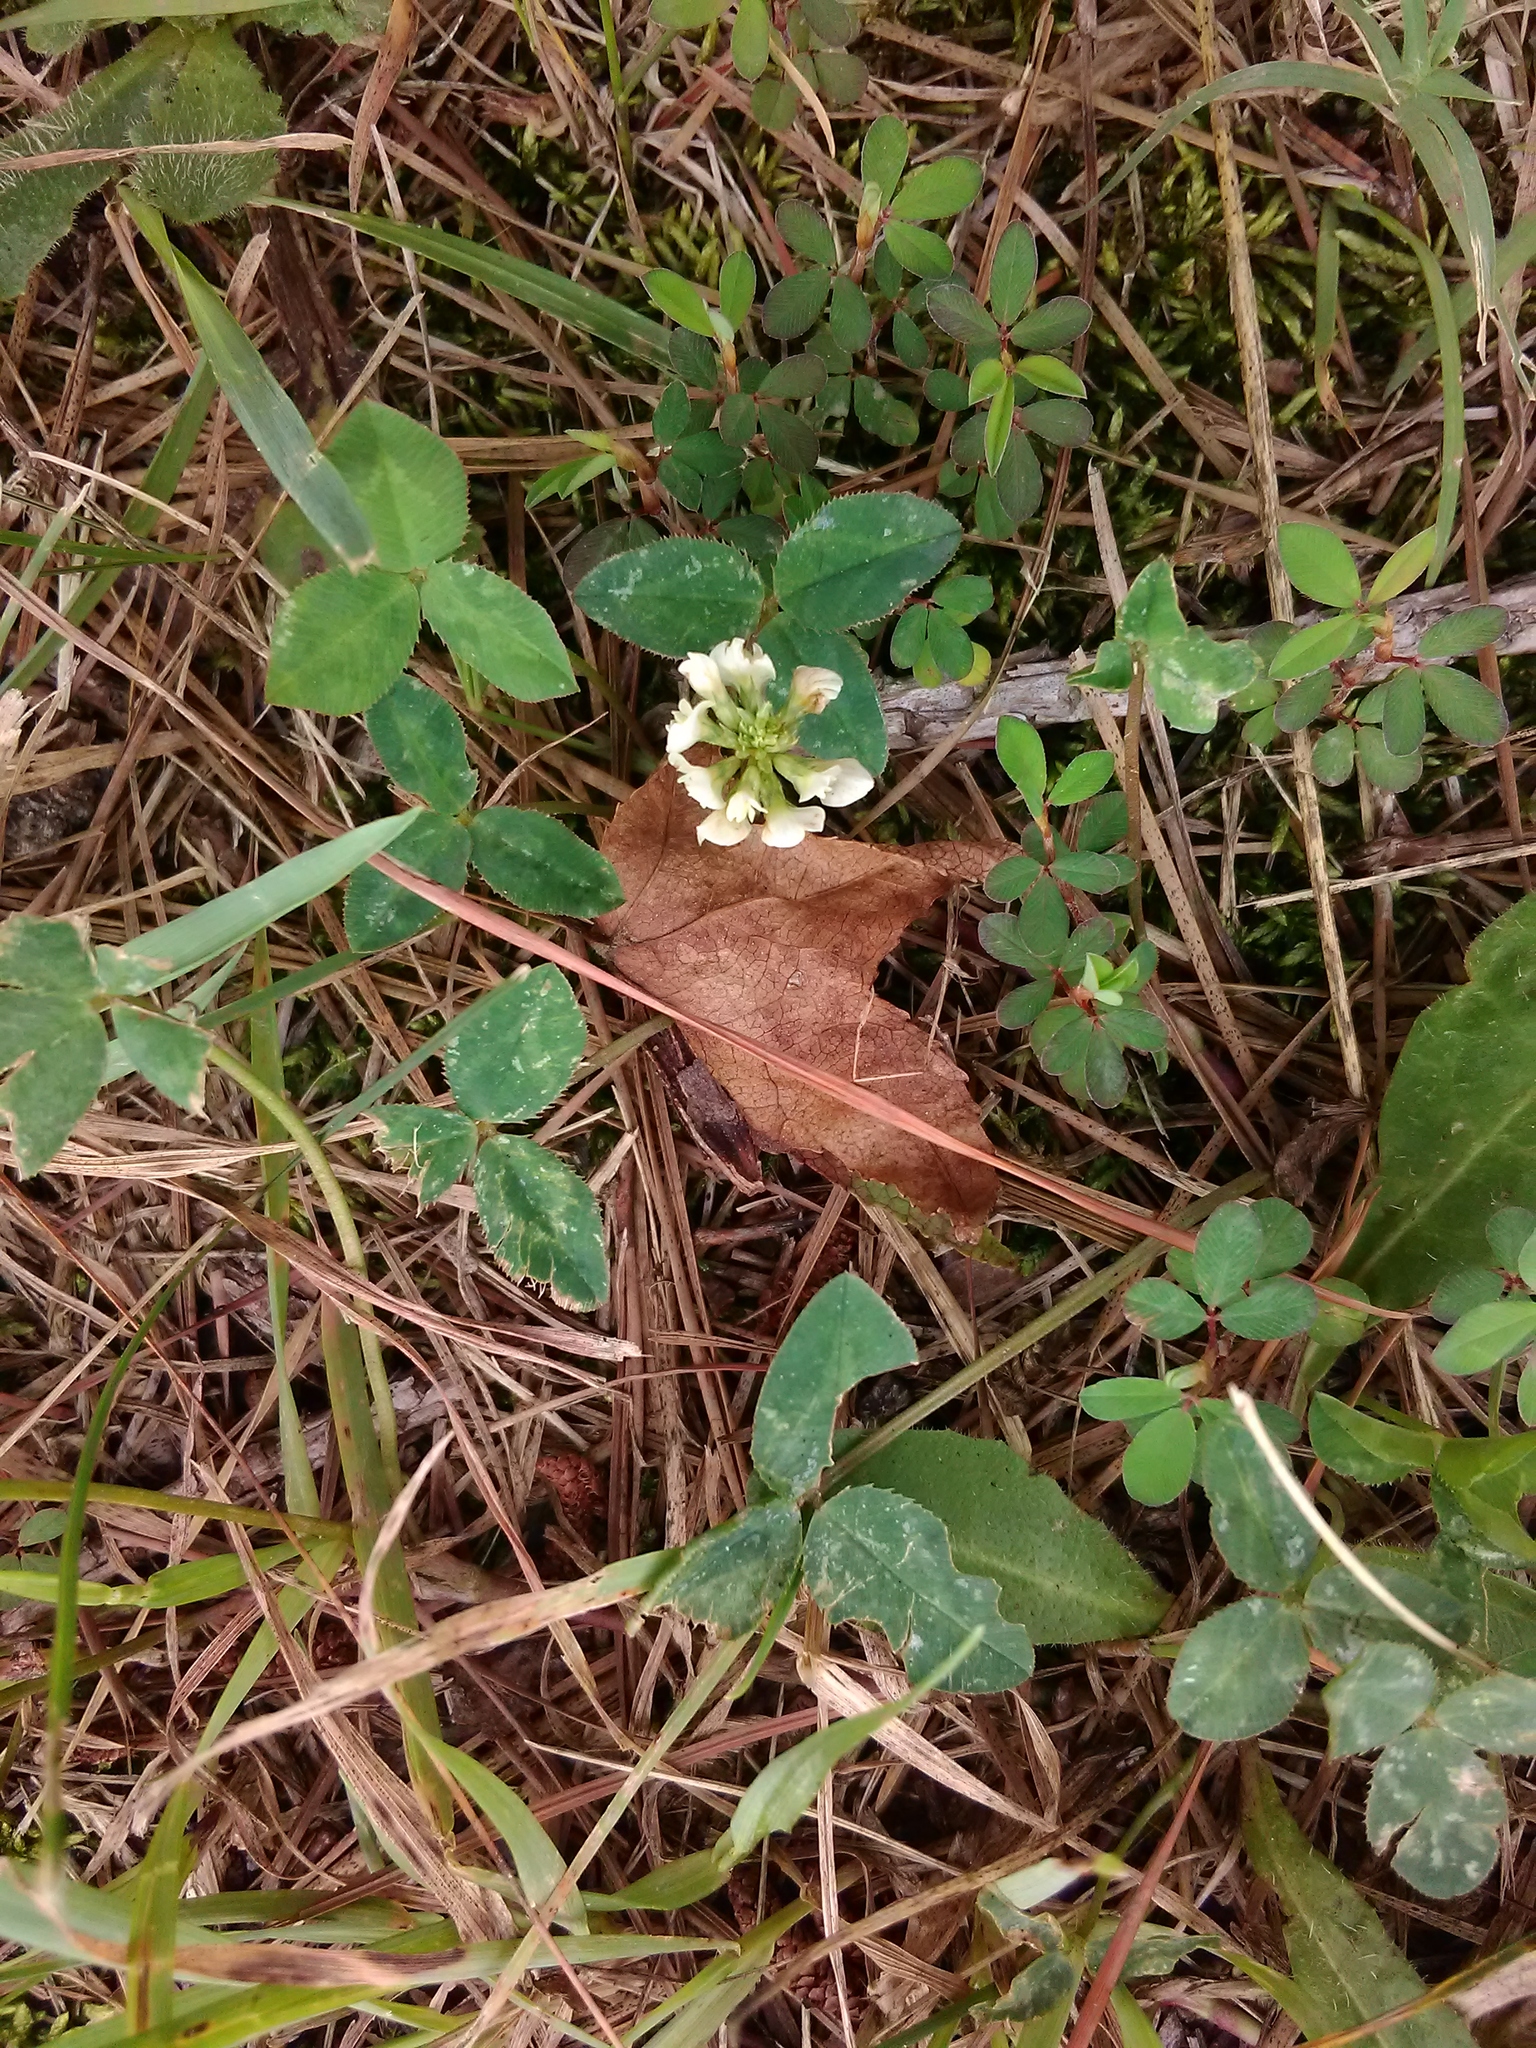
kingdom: Plantae
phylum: Tracheophyta
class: Magnoliopsida
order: Fabales
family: Fabaceae
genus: Trifolium
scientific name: Trifolium repens
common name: White clover
